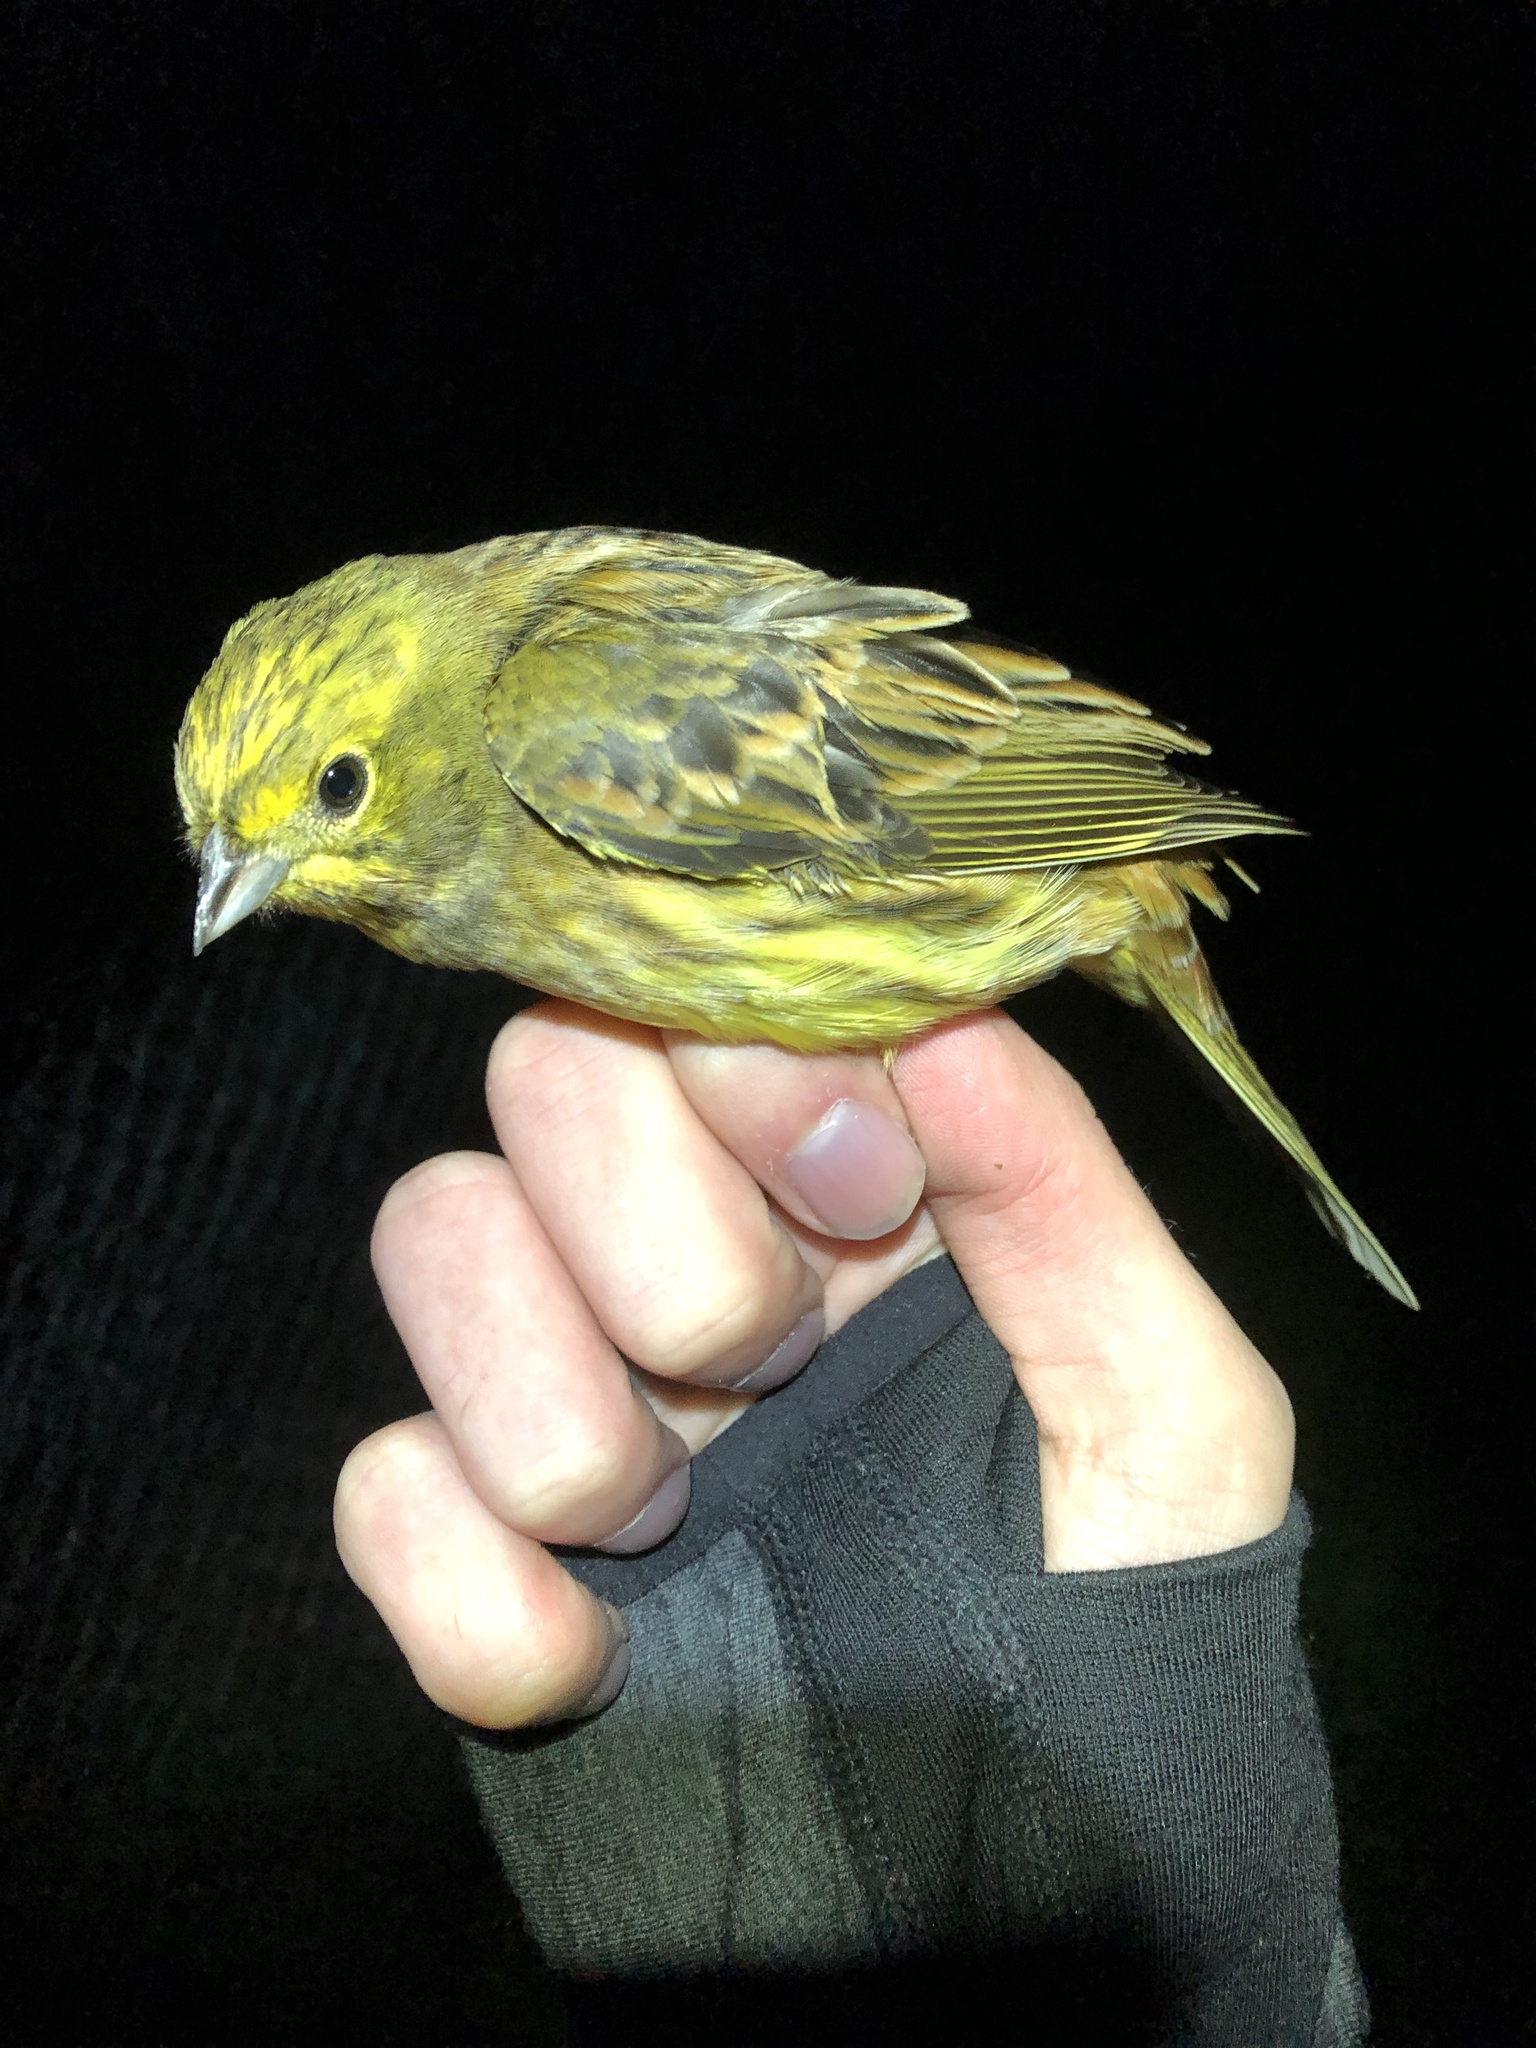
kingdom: Animalia
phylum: Chordata
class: Aves
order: Passeriformes
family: Emberizidae
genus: Emberiza
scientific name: Emberiza citrinella
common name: Yellowhammer
